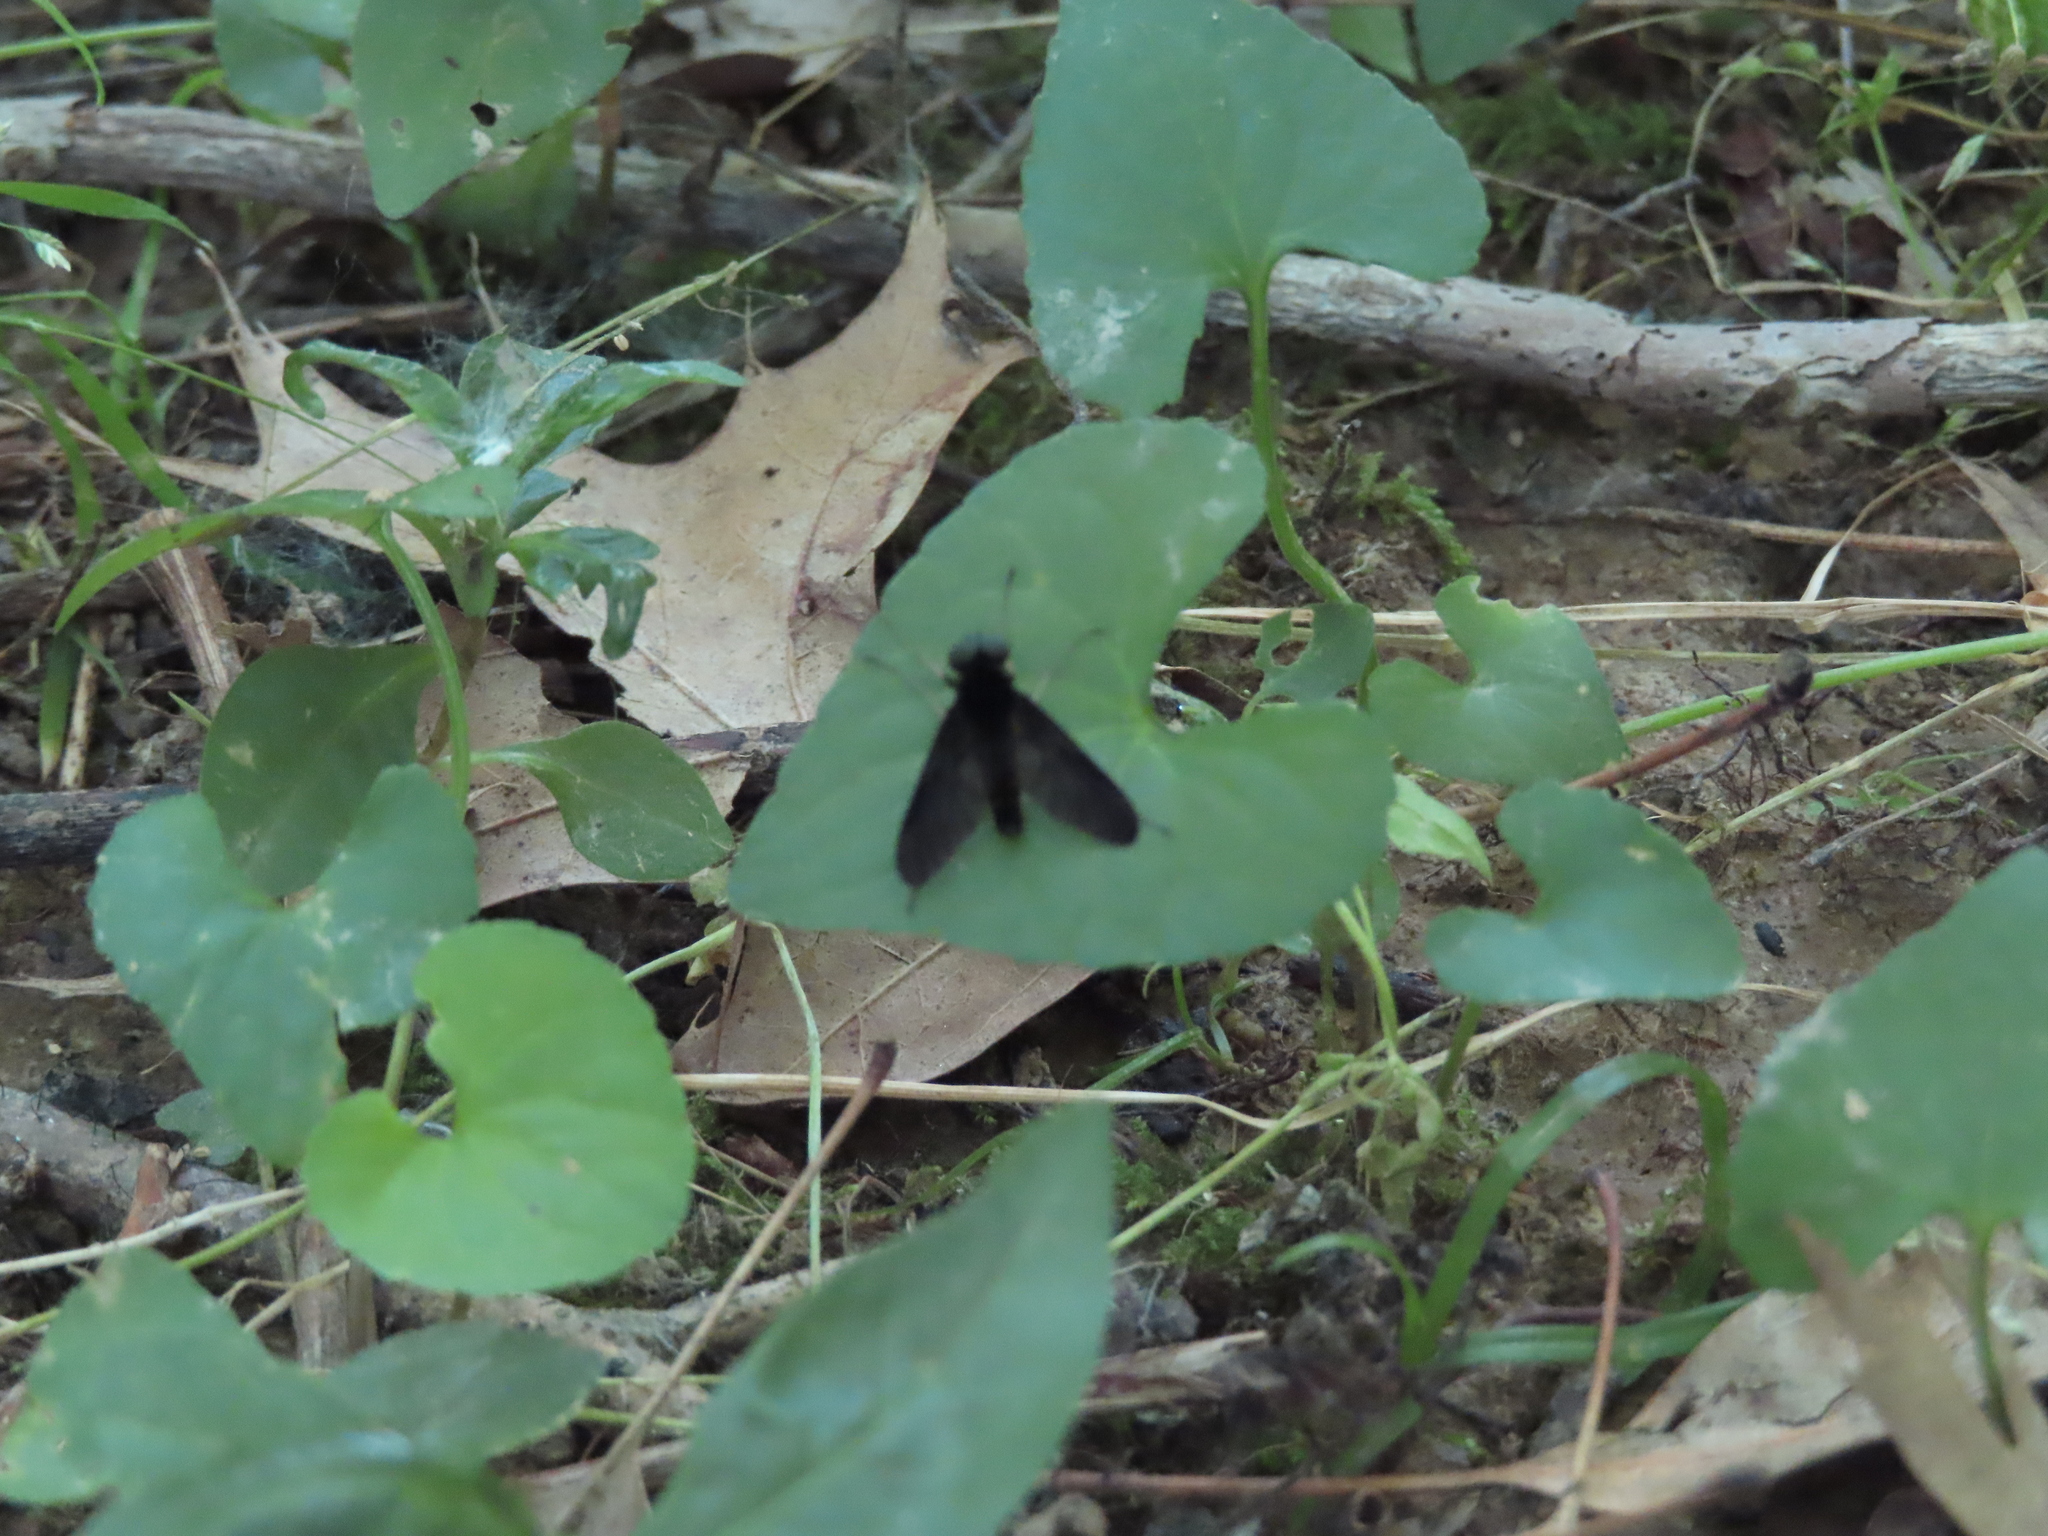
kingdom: Animalia
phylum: Arthropoda
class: Insecta
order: Diptera
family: Rhagionidae
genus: Chrysopilus
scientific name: Chrysopilus velutinus
